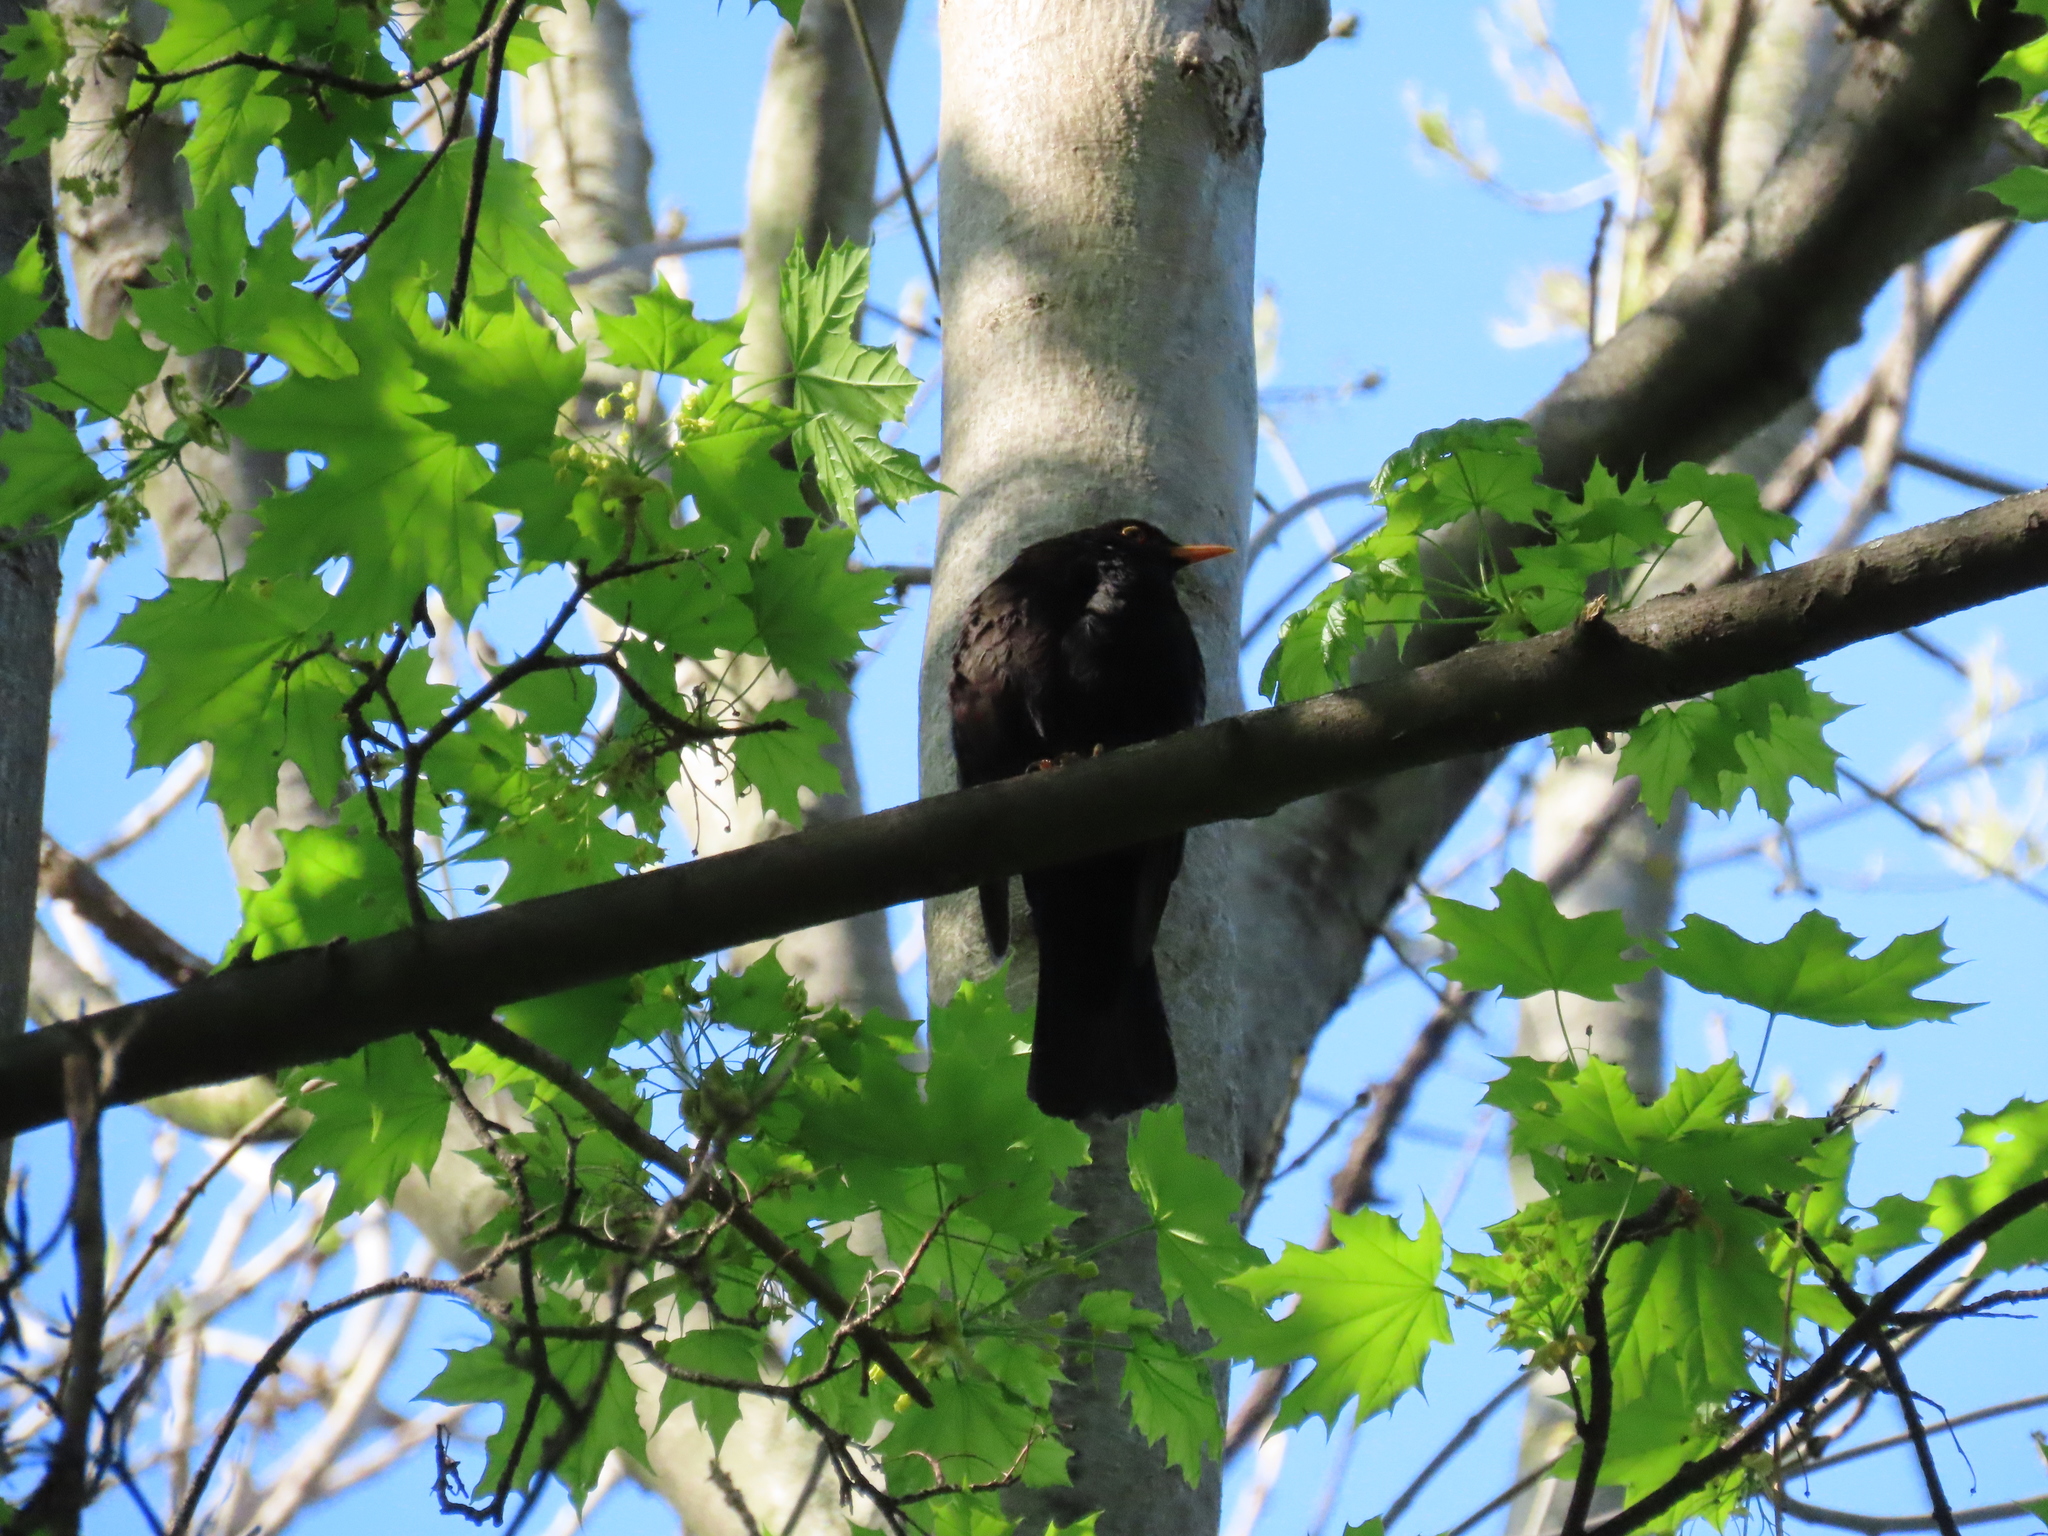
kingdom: Animalia
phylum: Chordata
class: Aves
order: Passeriformes
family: Turdidae
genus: Turdus
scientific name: Turdus merula
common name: Common blackbird
